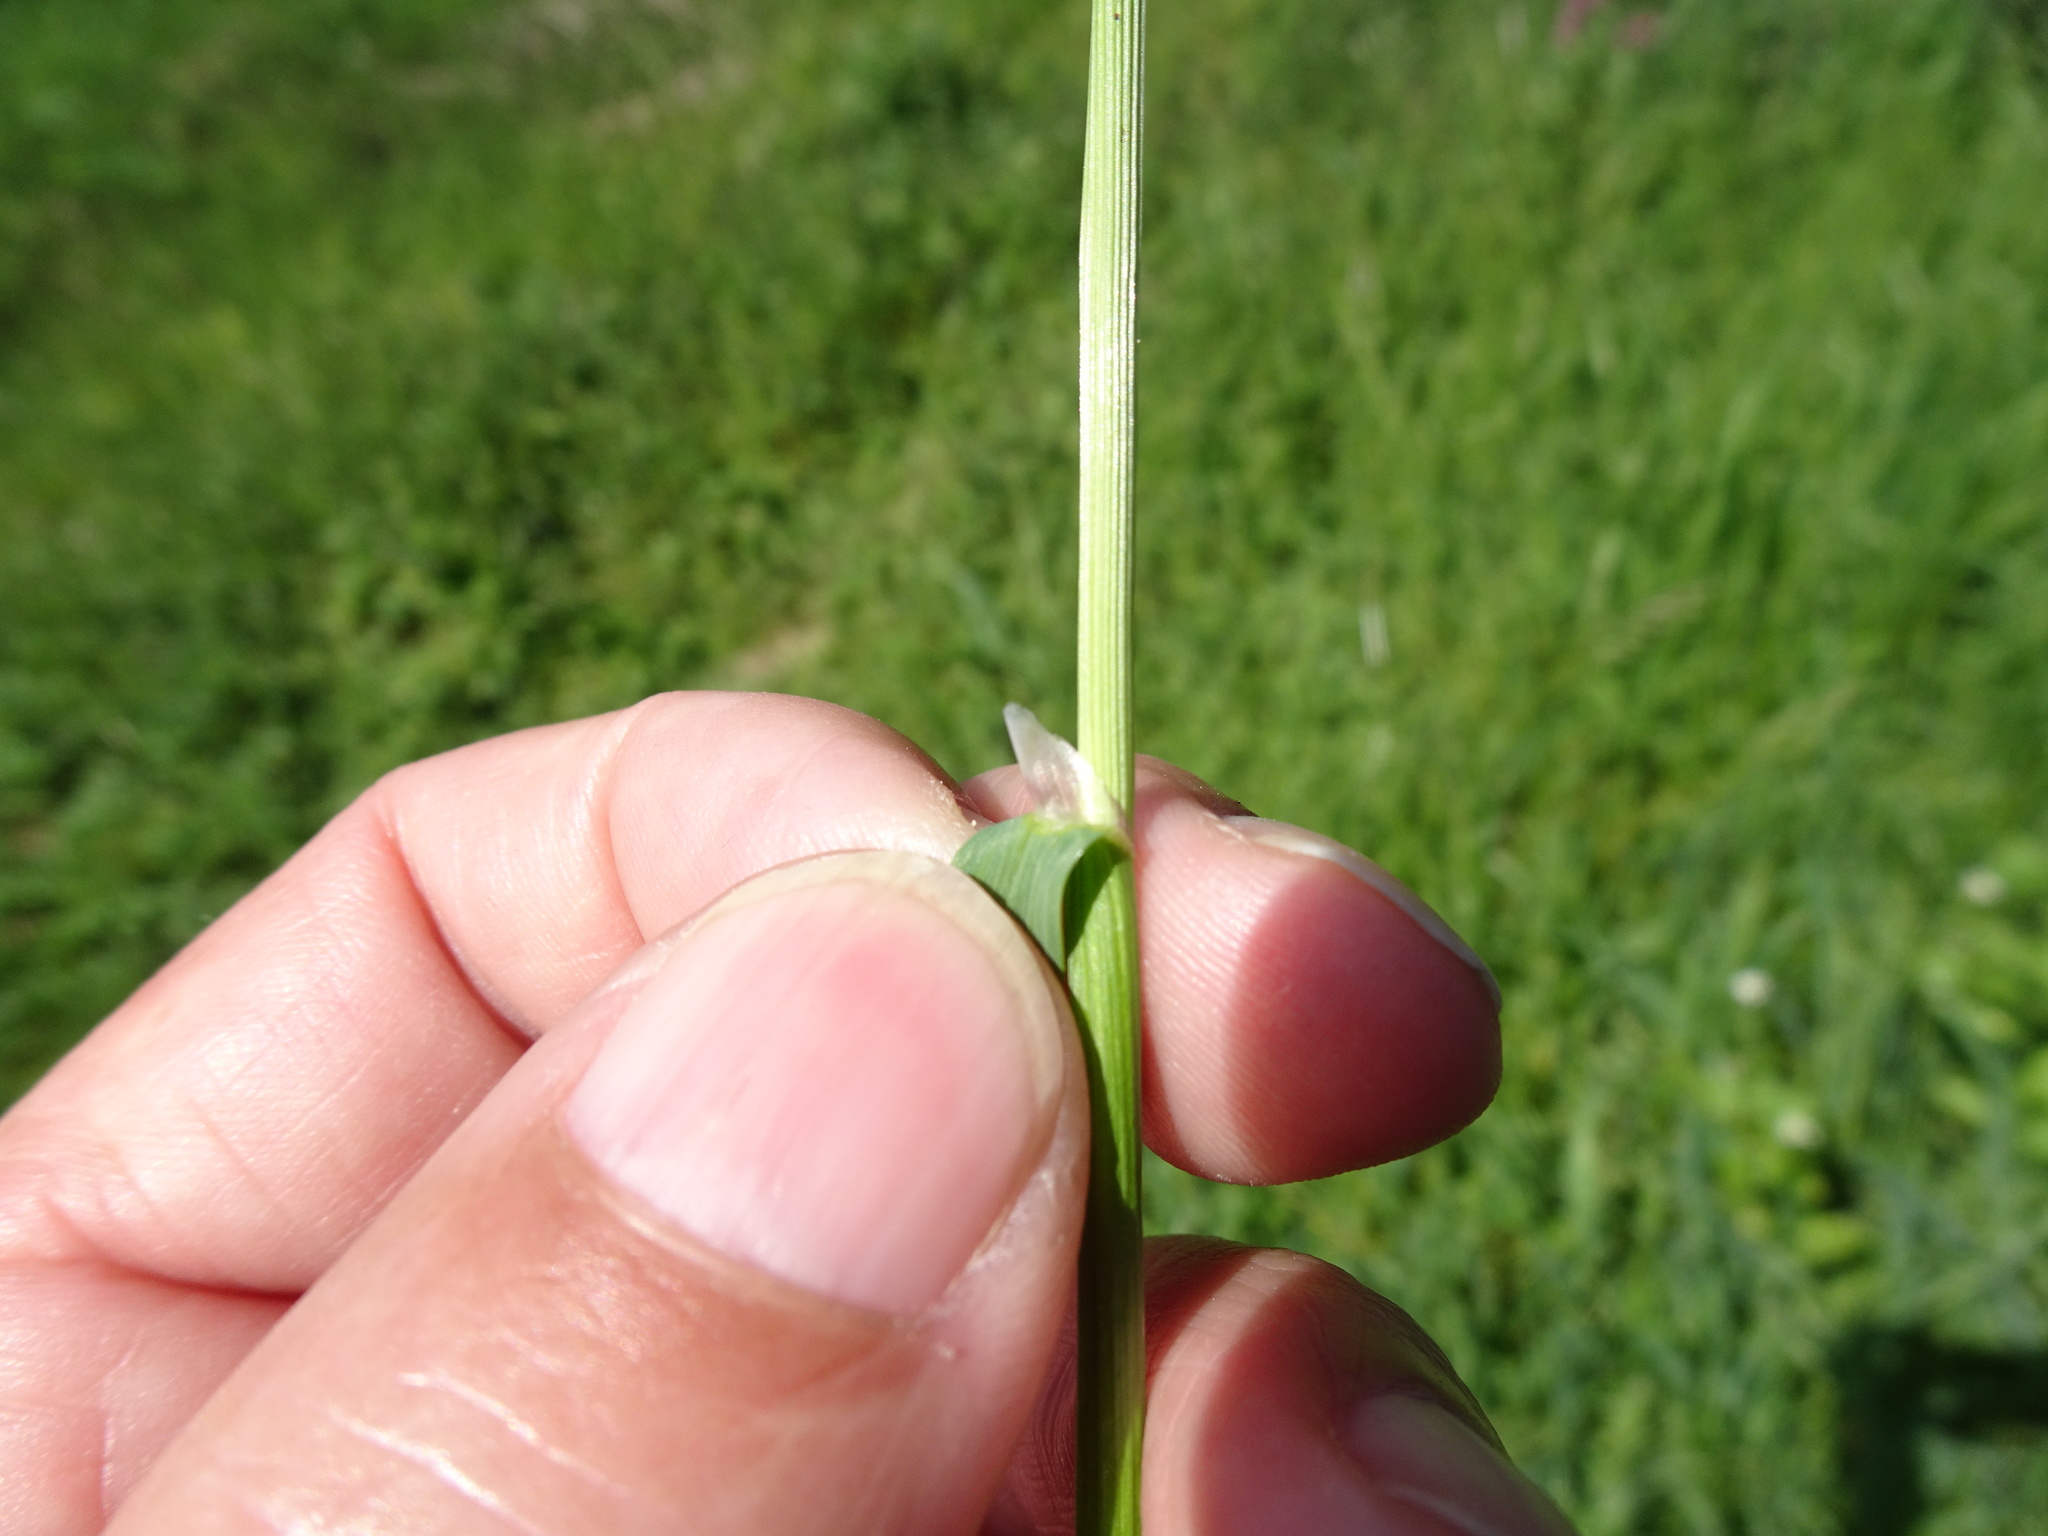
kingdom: Plantae
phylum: Tracheophyta
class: Liliopsida
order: Poales
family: Poaceae
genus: Poa
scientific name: Poa trivialis
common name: Rough bluegrass
